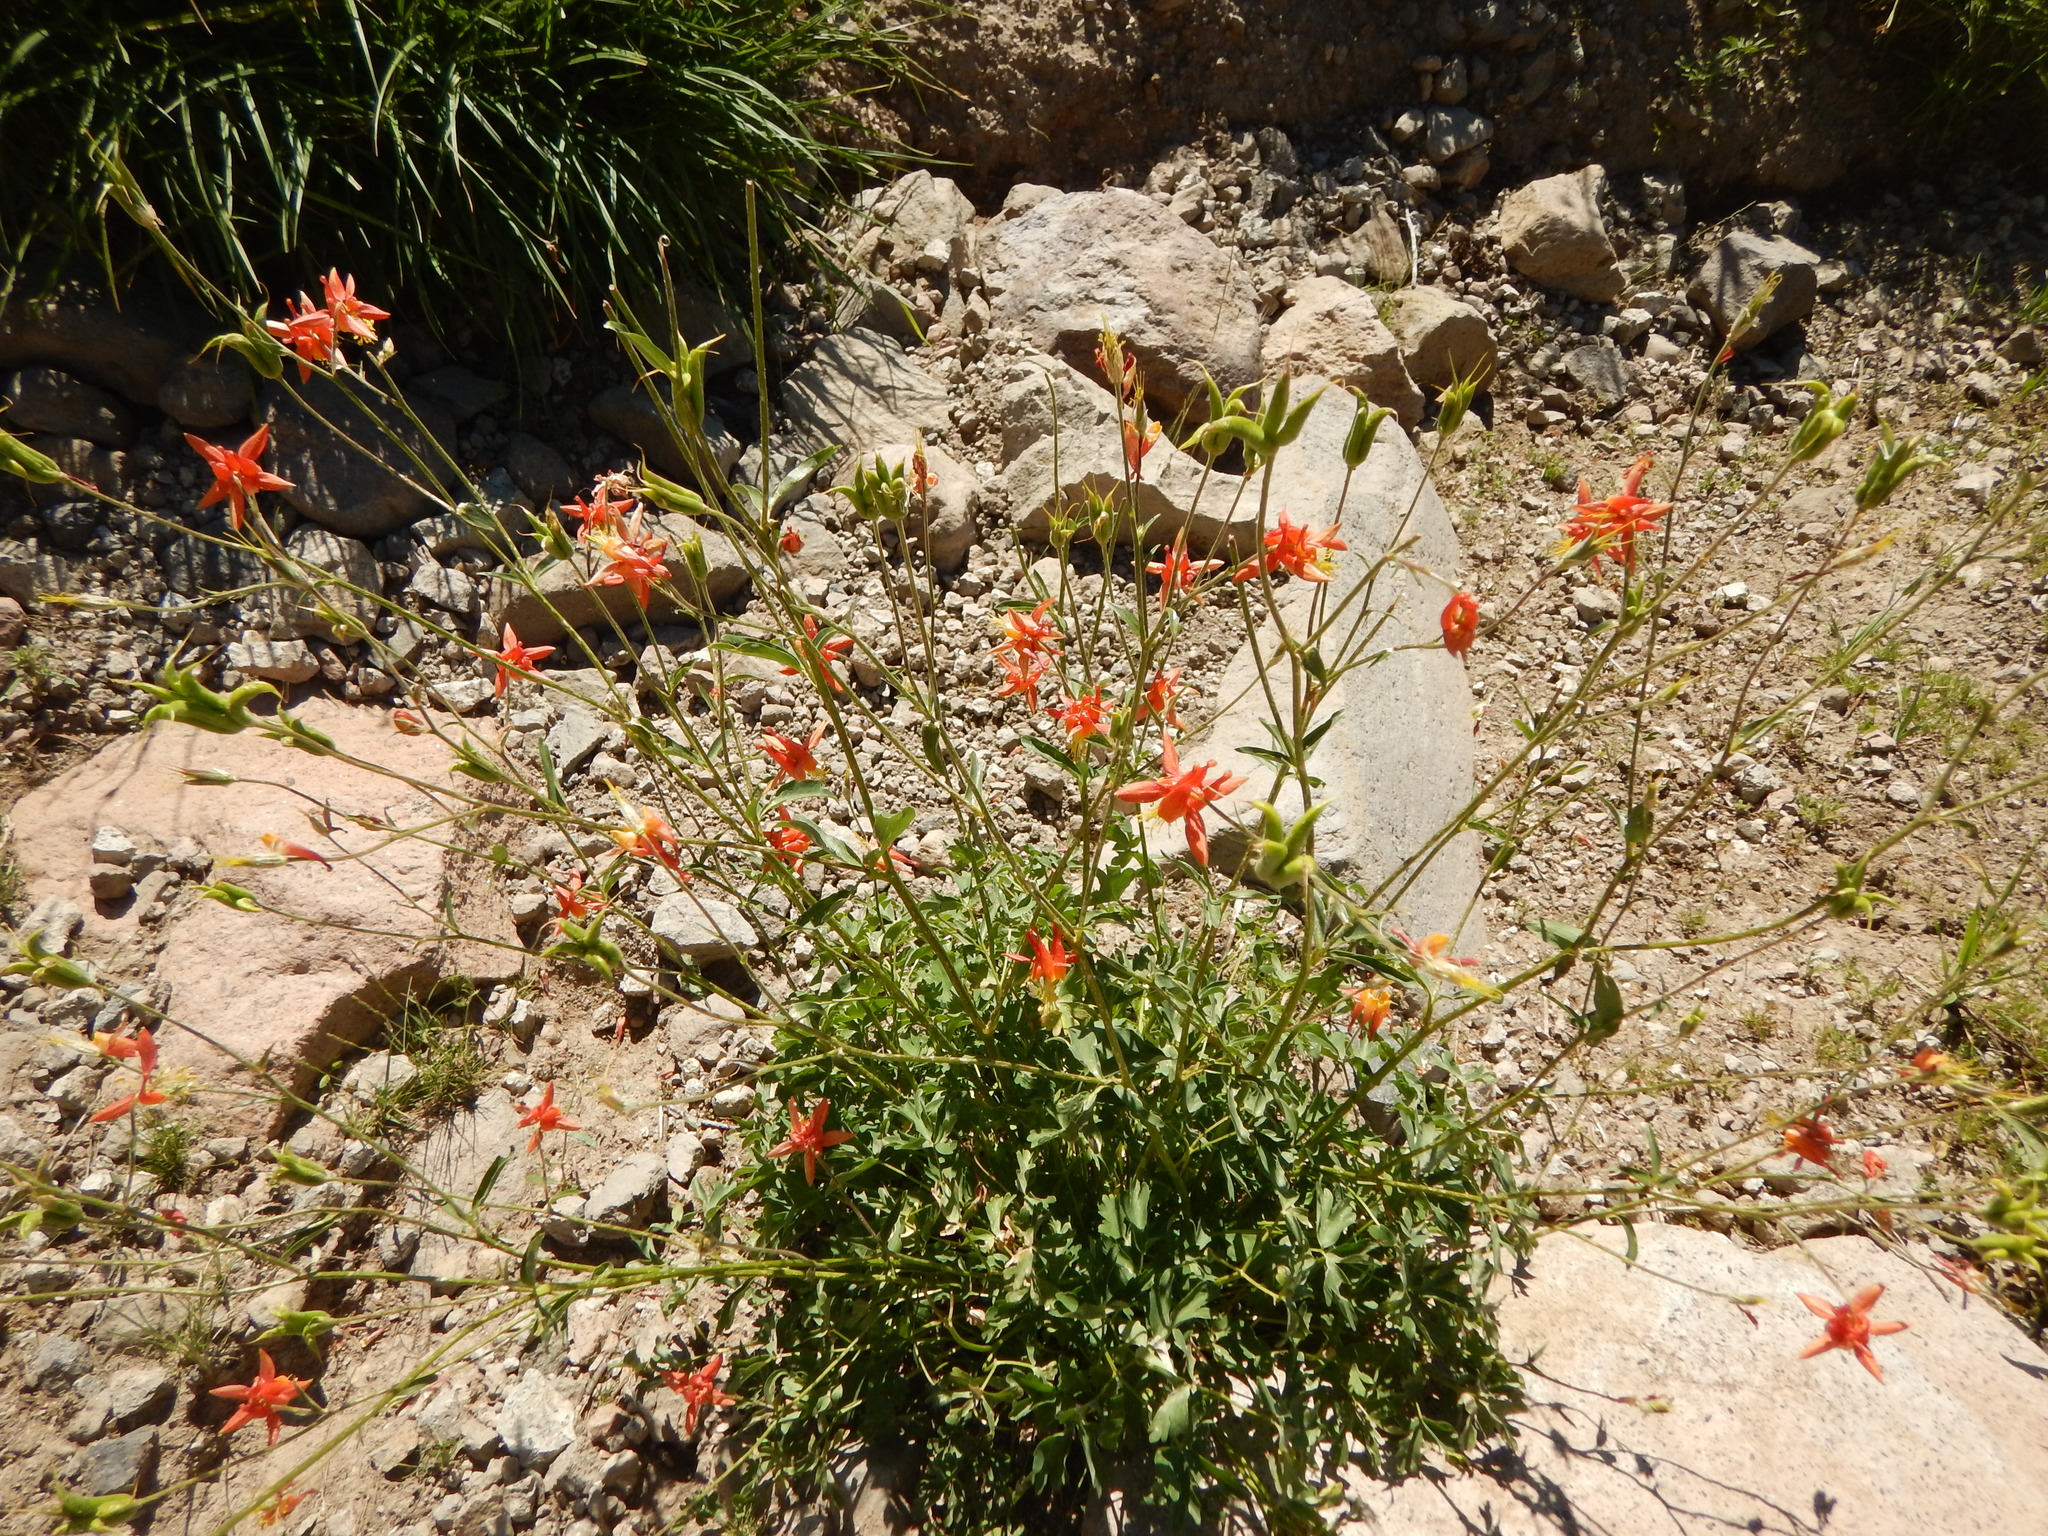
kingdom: Plantae
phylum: Tracheophyta
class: Magnoliopsida
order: Ranunculales
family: Ranunculaceae
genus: Aquilegia
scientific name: Aquilegia formosa
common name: Sitka columbine
